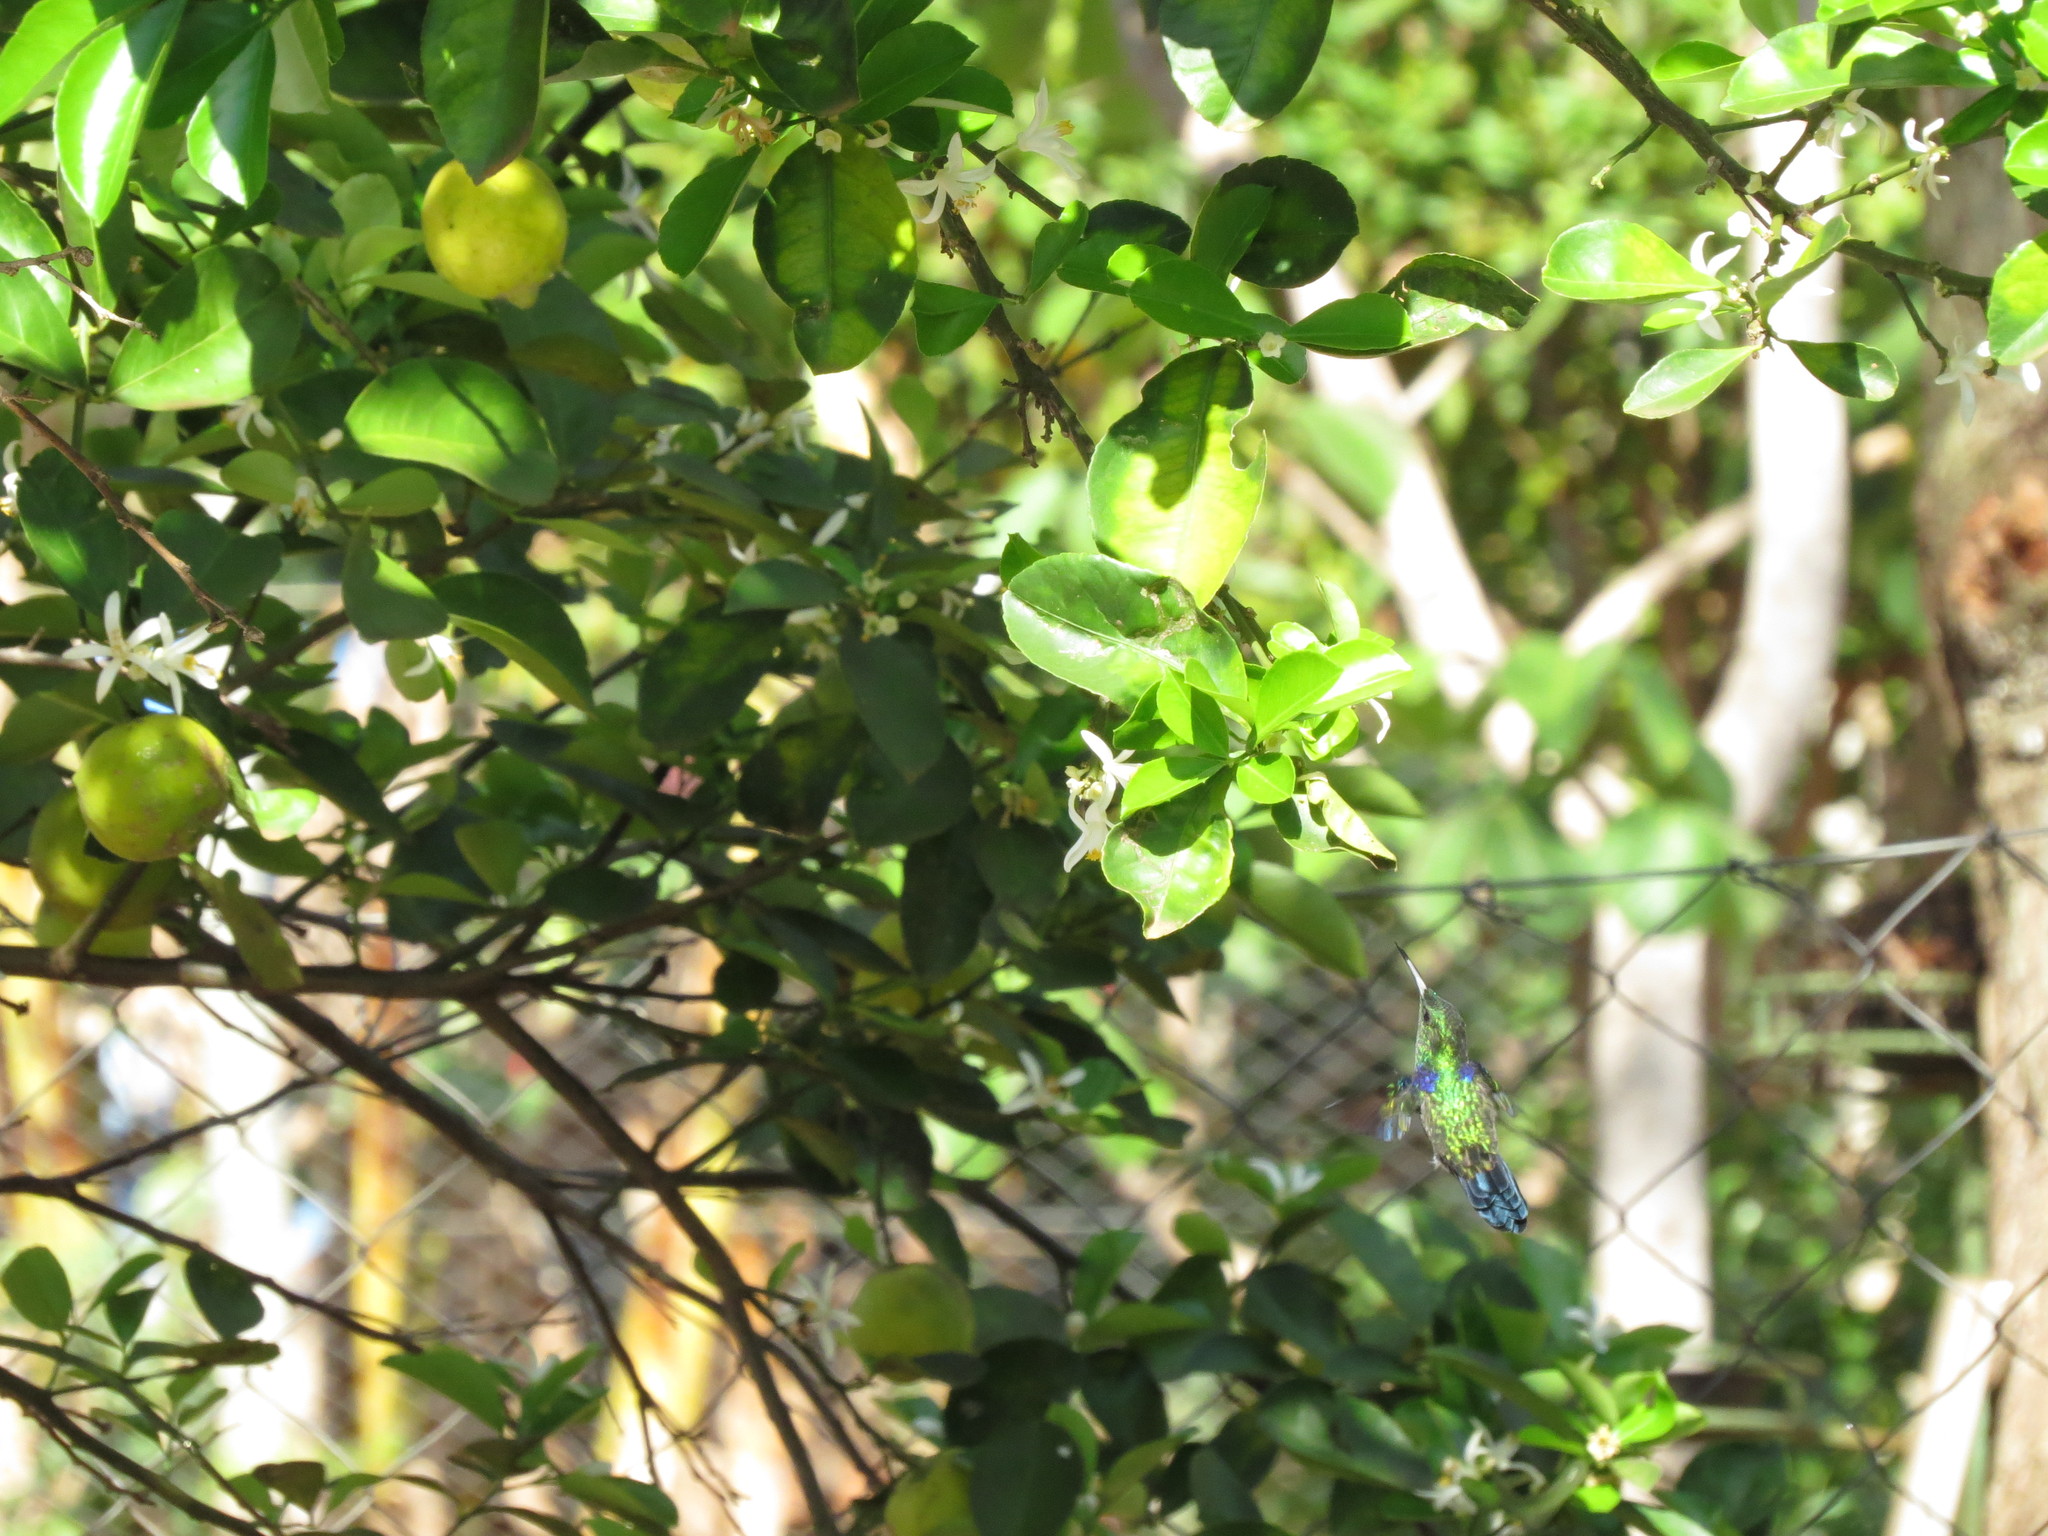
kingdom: Animalia
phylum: Chordata
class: Aves
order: Apodiformes
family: Trochilidae
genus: Thalurania
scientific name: Thalurania furcata
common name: Fork-tailed woodnymph
